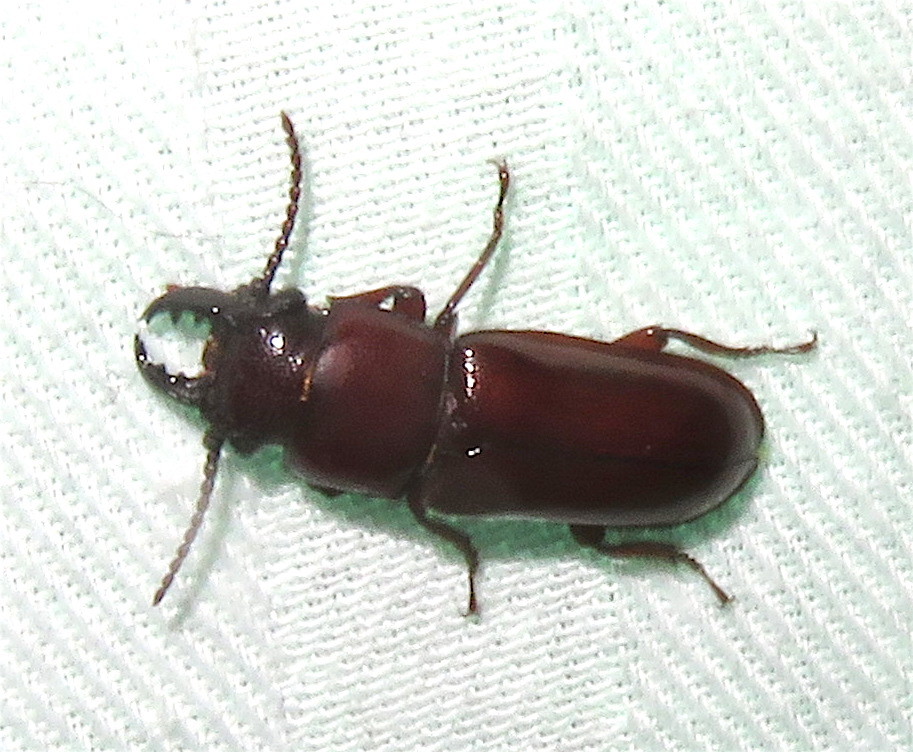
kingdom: Animalia
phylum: Arthropoda
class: Insecta
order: Coleoptera
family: Cerambycidae
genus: Neandra
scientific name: Neandra brunnea
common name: Pole borer
